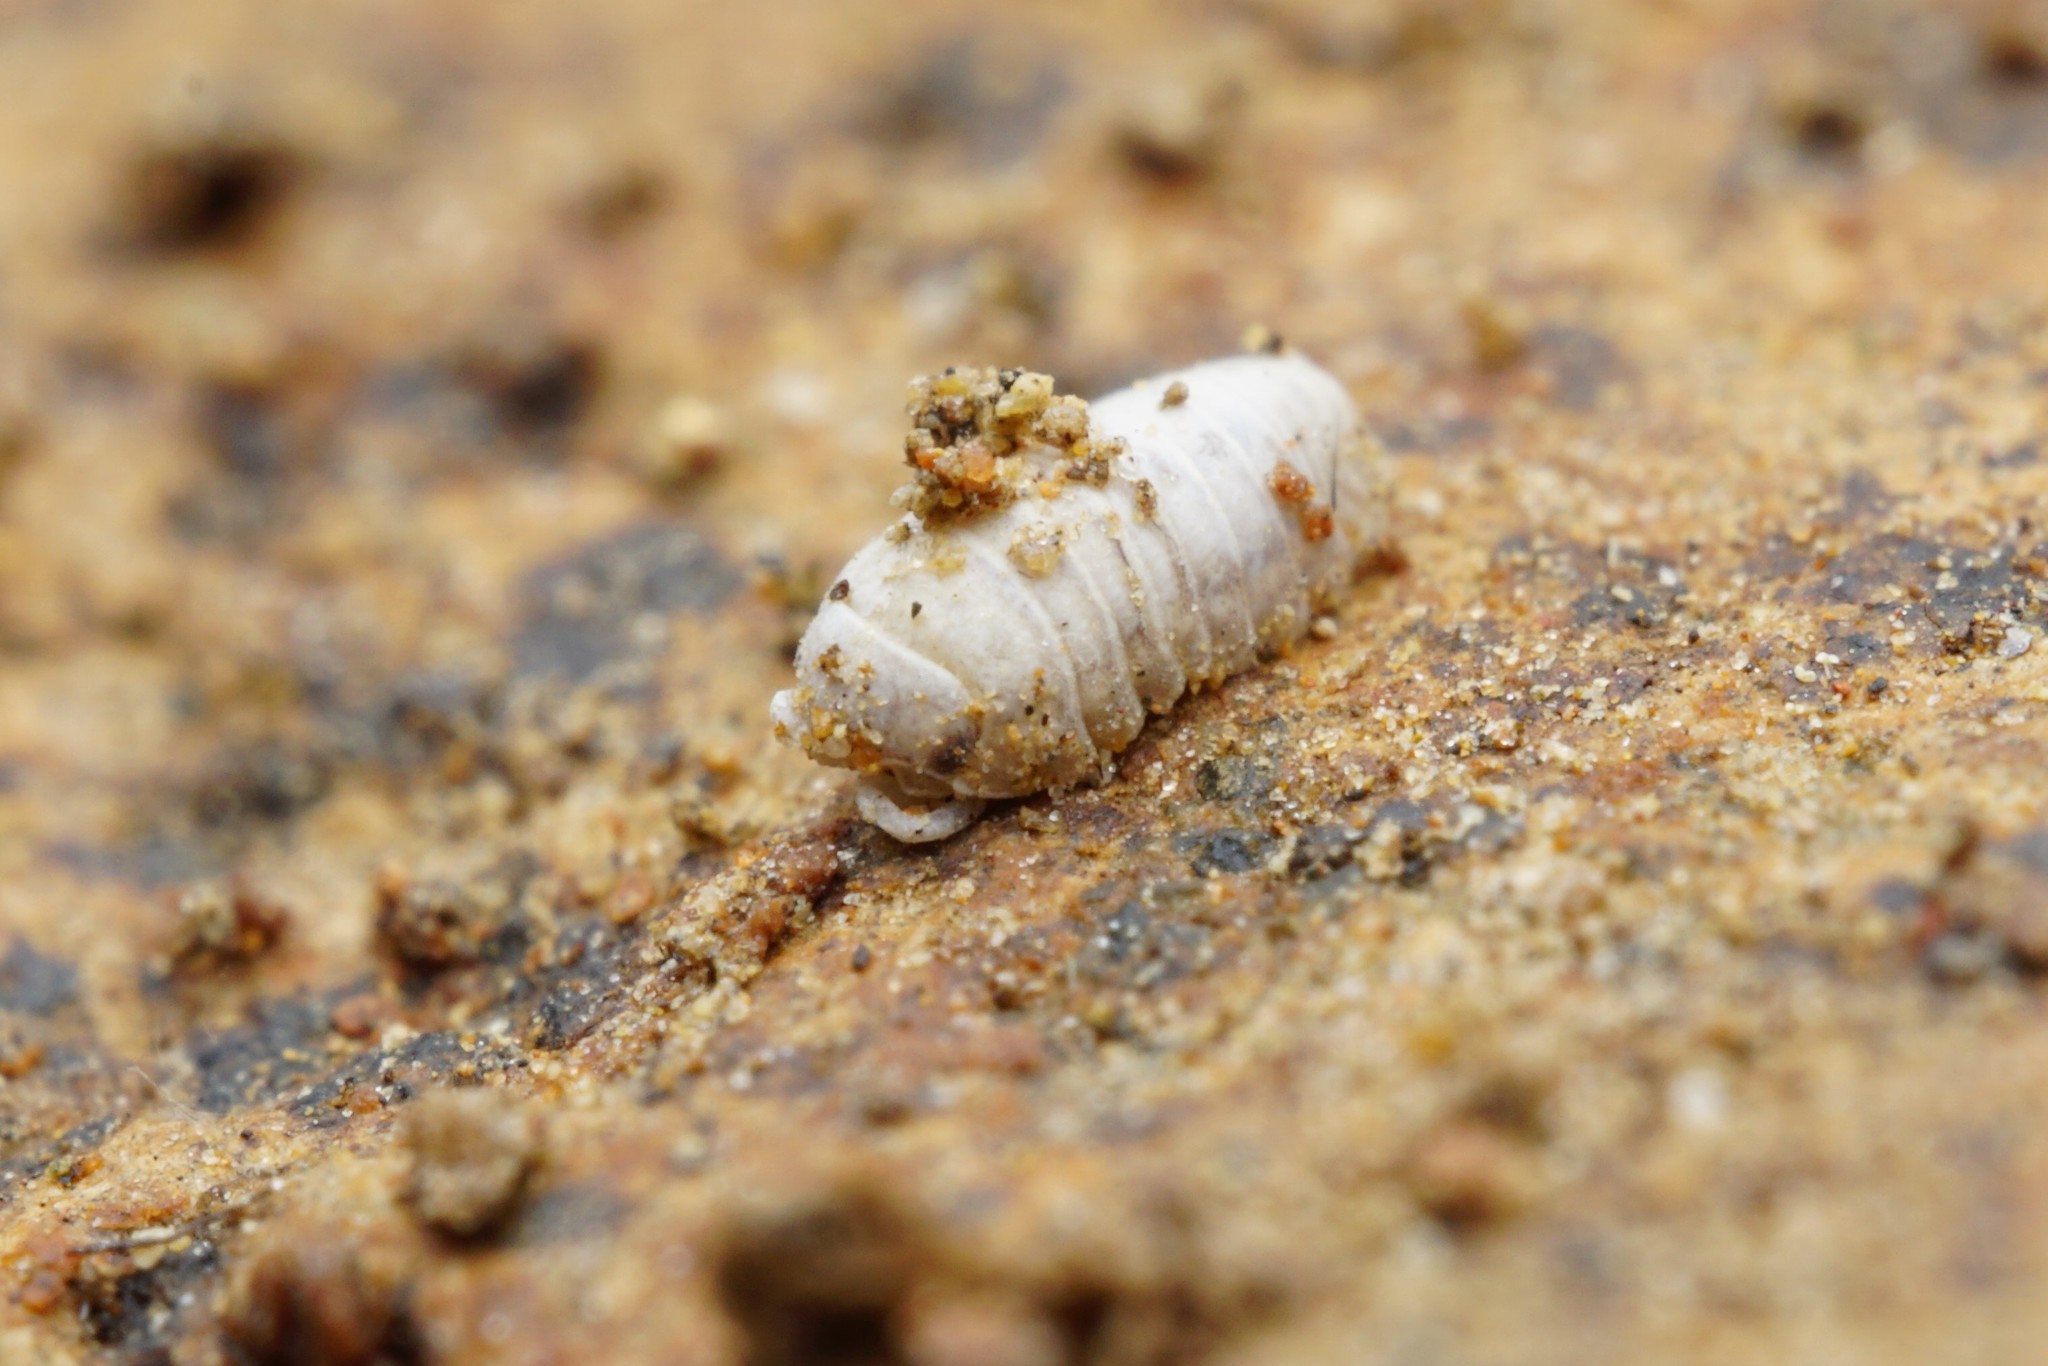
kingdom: Animalia
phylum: Arthropoda
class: Malacostraca
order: Isopoda
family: Armadillidiidae
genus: Armadillidium
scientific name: Armadillidium vulgare
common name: Common pill woodlouse
